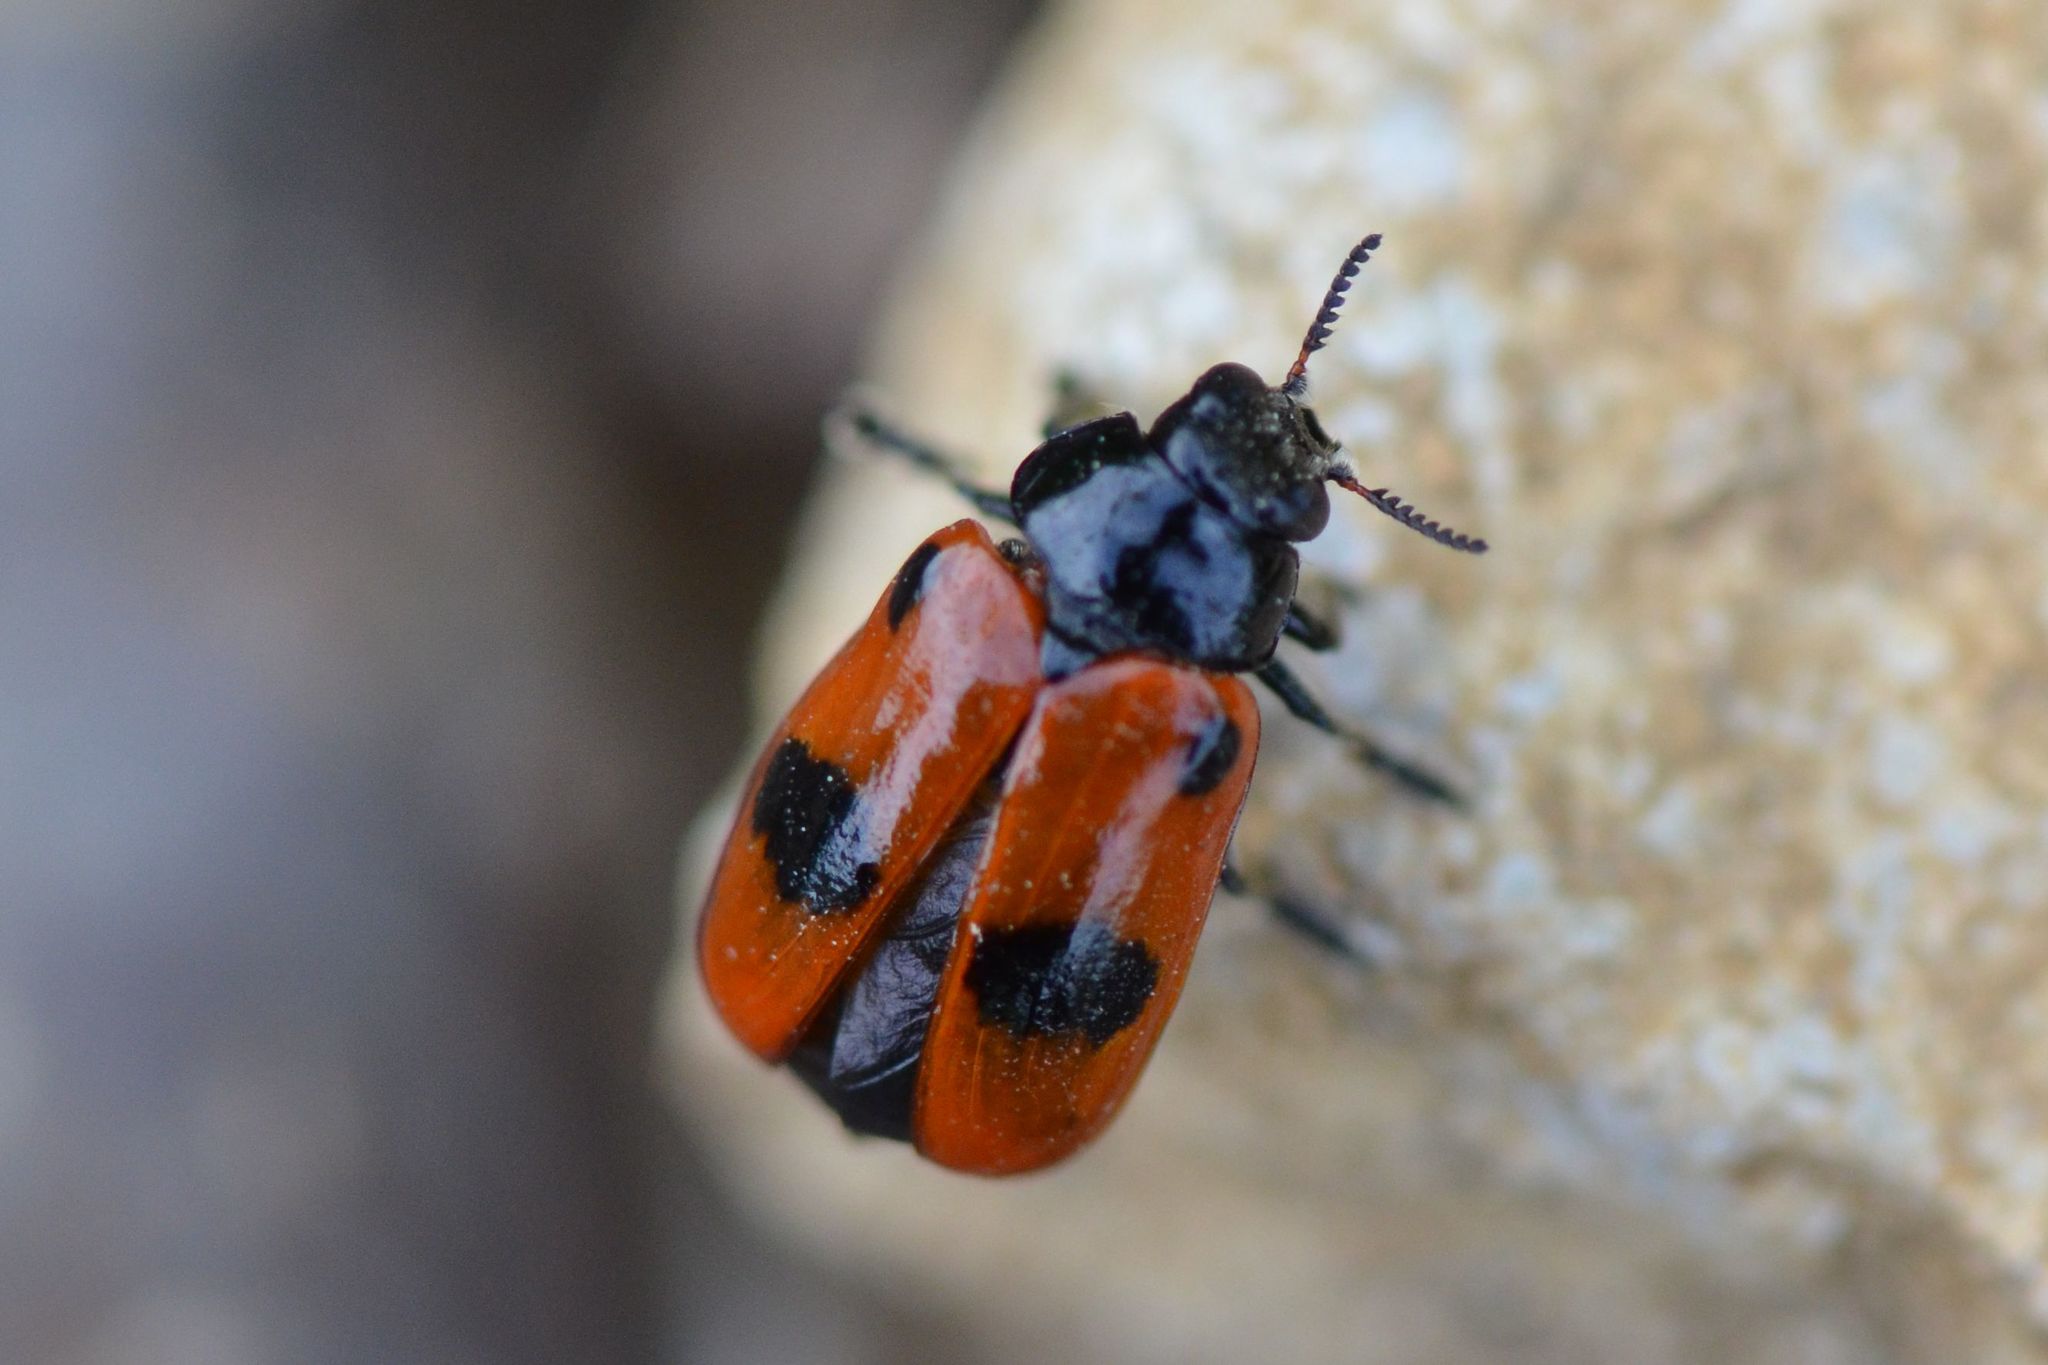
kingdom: Animalia
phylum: Arthropoda
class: Insecta
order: Coleoptera
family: Chrysomelidae
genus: Clytra
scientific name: Clytra laeviuscula
